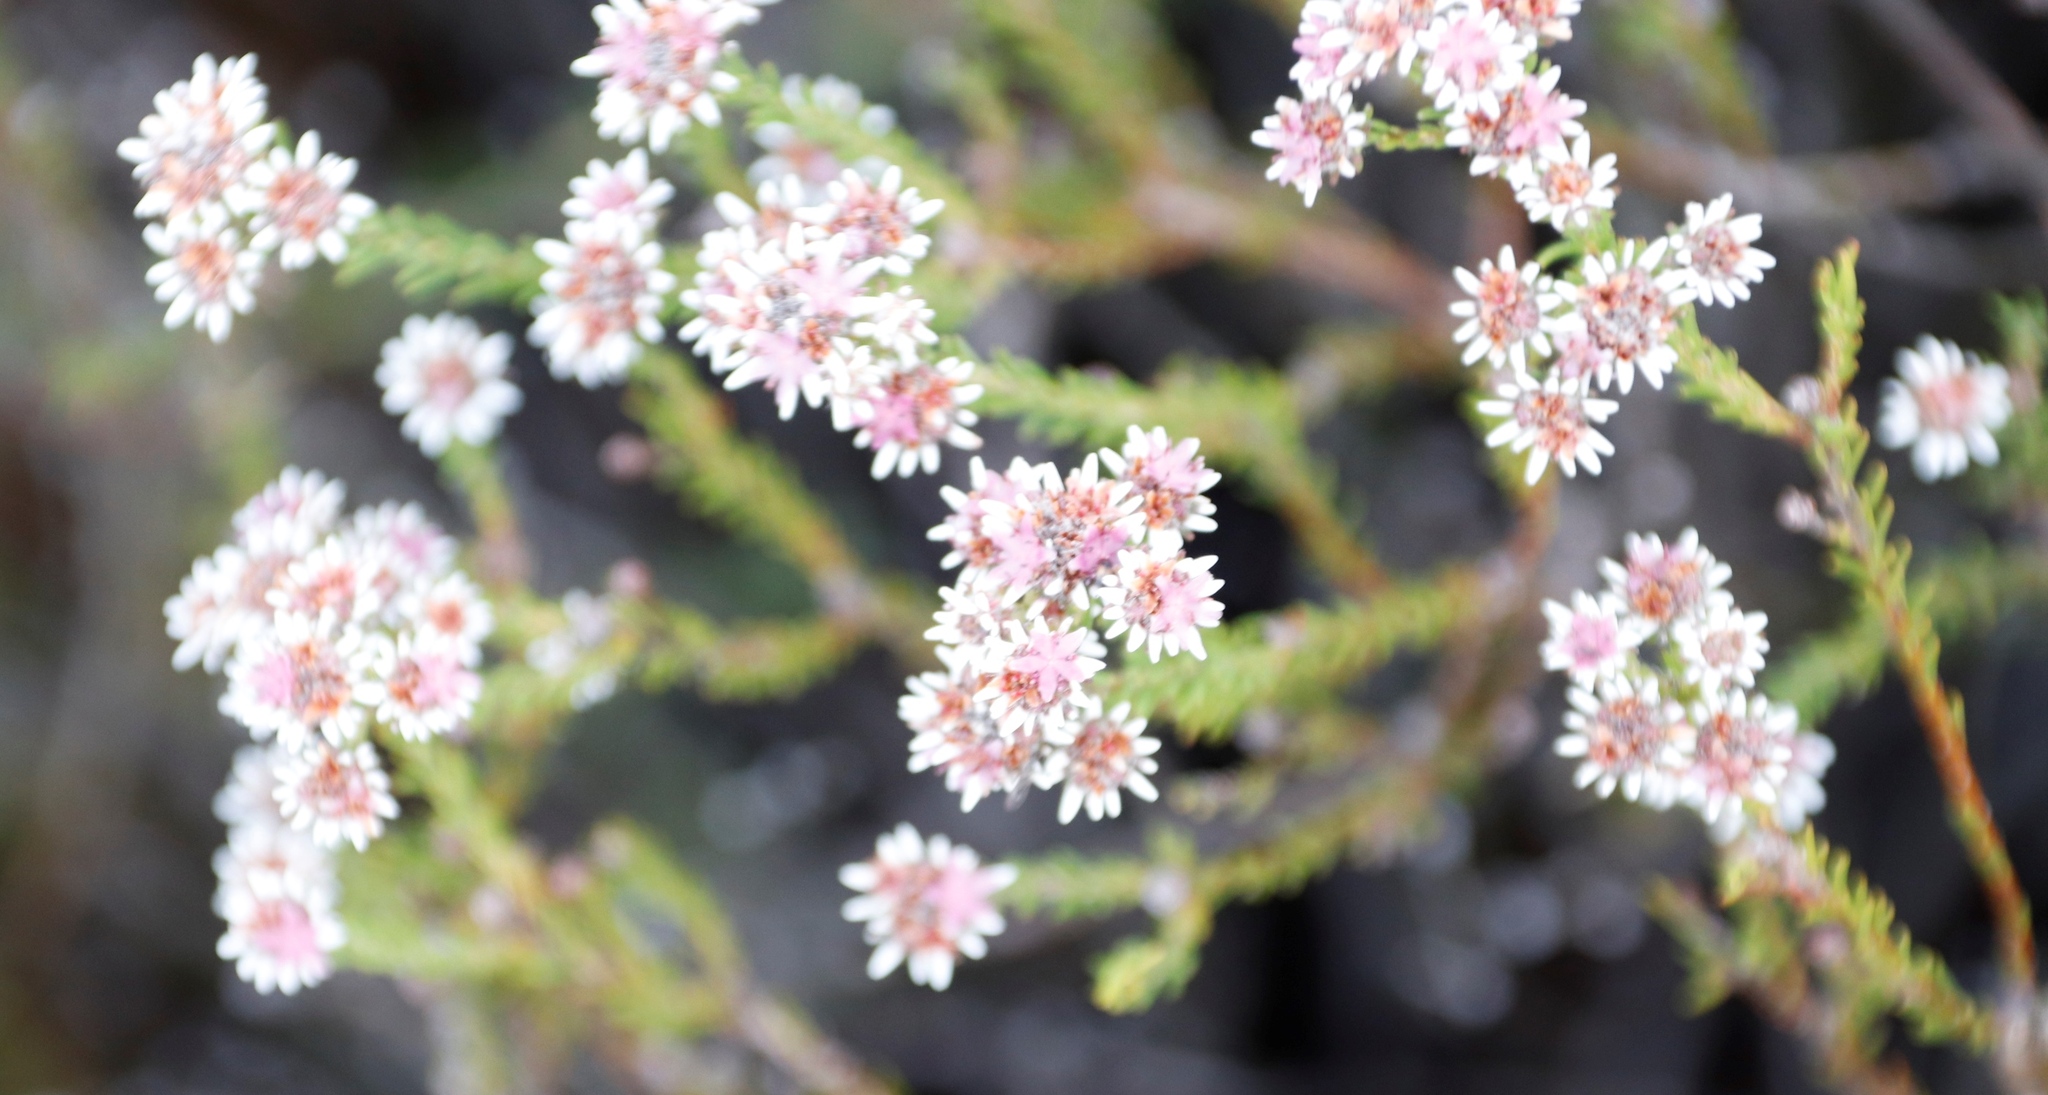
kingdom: Plantae
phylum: Tracheophyta
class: Magnoliopsida
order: Bruniales
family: Bruniaceae
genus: Staavia
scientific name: Staavia radiata
